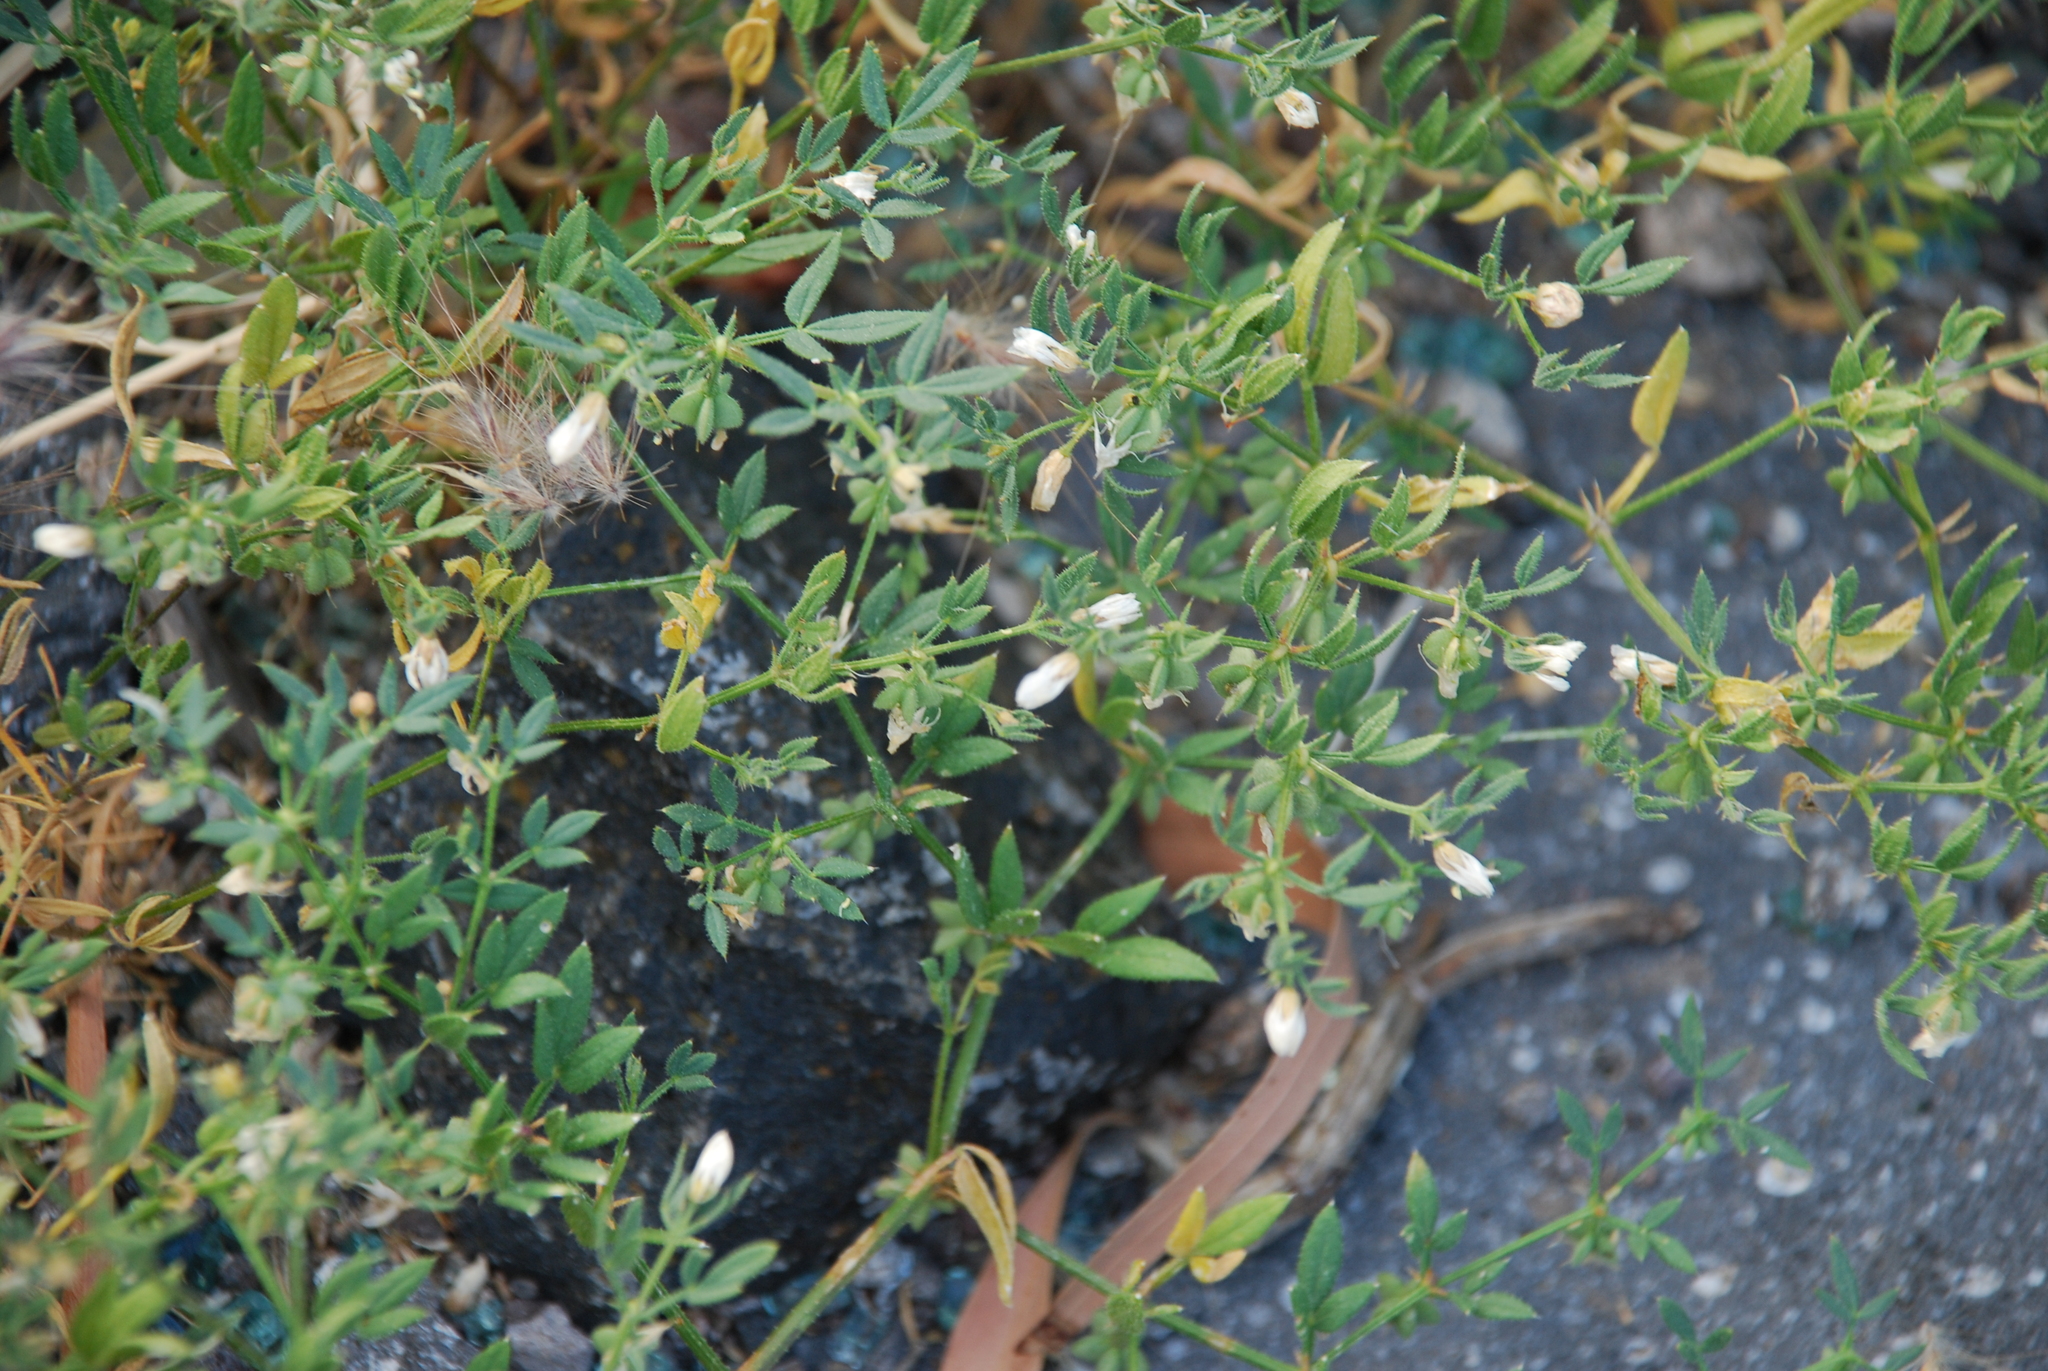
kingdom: Plantae
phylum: Tracheophyta
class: Magnoliopsida
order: Zygophyllales
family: Zygophyllaceae
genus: Fagonia
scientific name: Fagonia cretica
